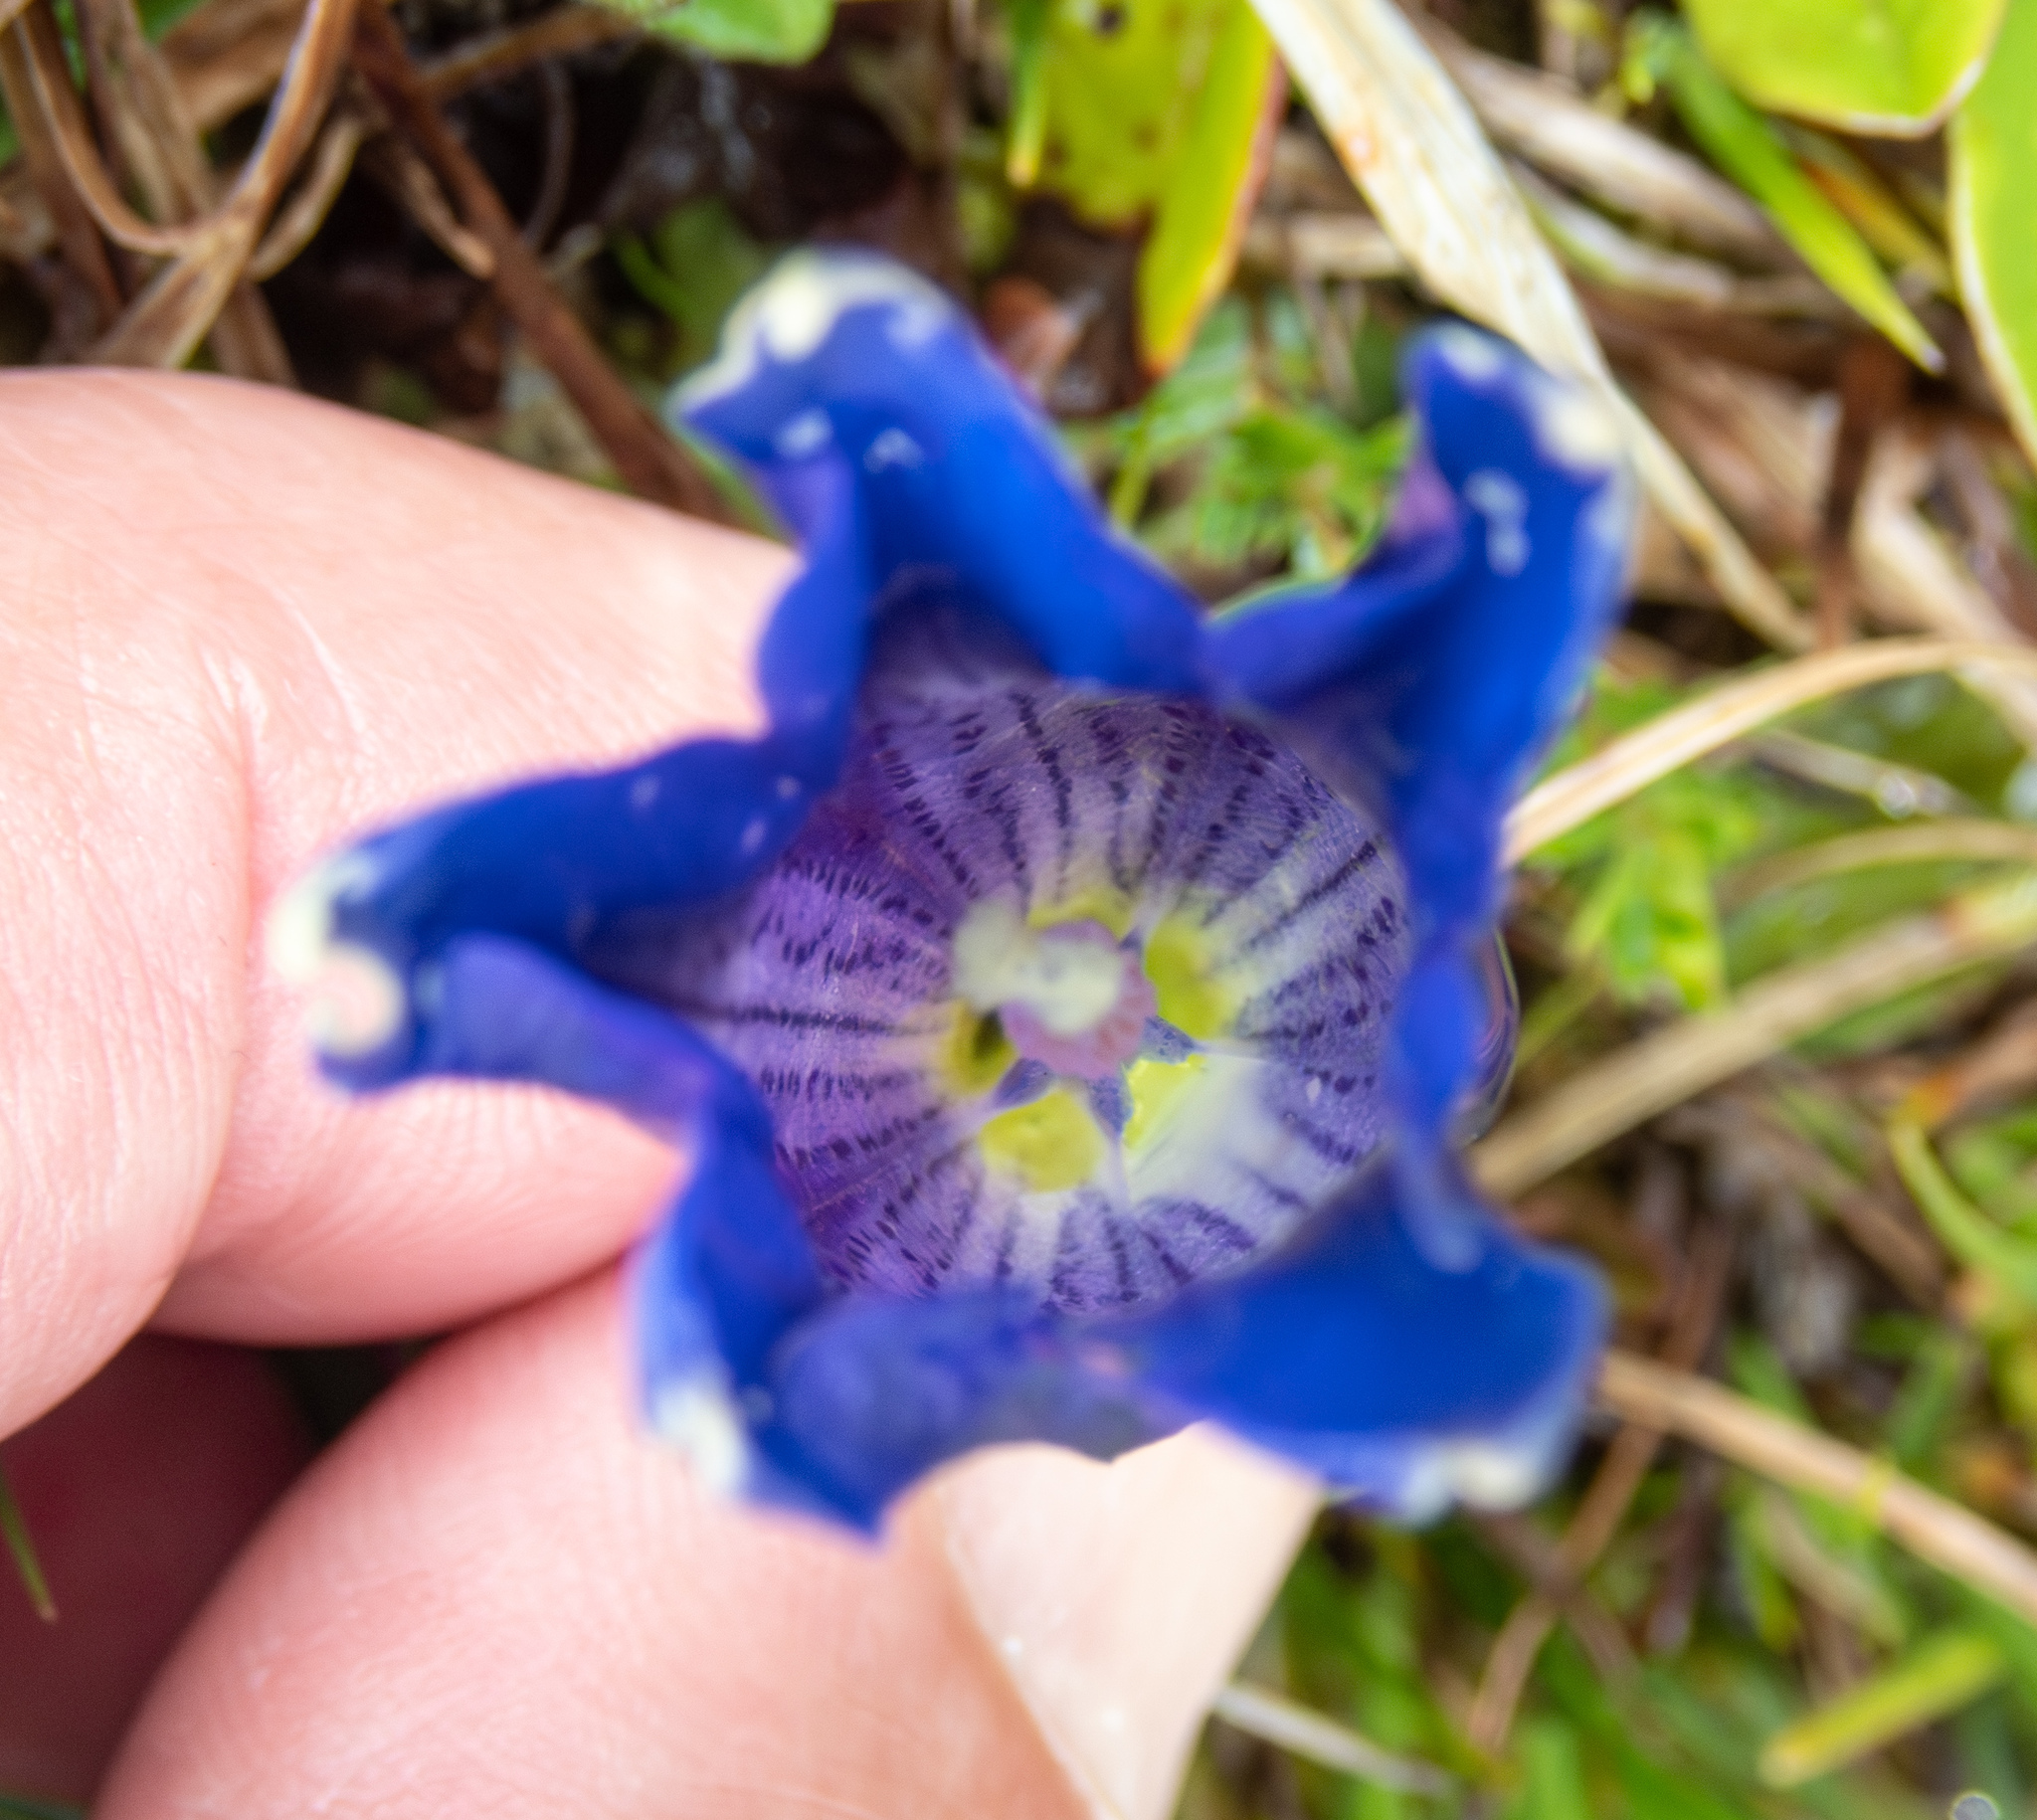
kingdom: Plantae
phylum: Tracheophyta
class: Magnoliopsida
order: Gentianales
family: Gentianaceae
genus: Gentiana
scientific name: Gentiana clusii
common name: Trumpet gentian
